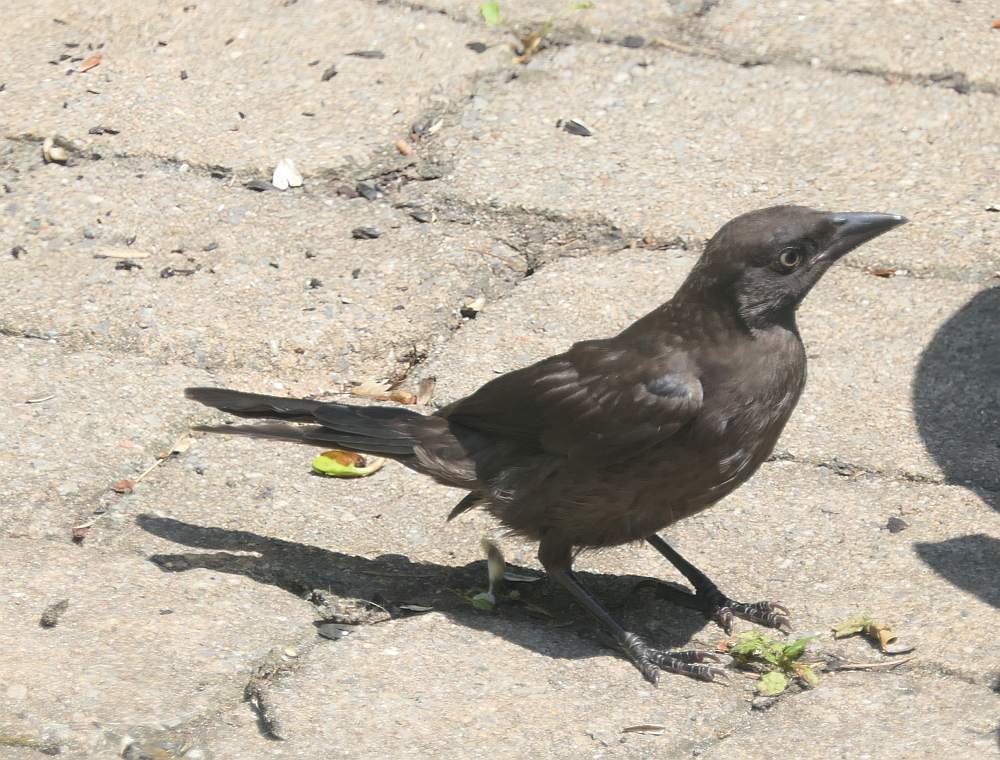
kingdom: Animalia
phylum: Chordata
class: Aves
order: Passeriformes
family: Icteridae
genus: Quiscalus
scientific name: Quiscalus quiscula
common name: Common grackle
